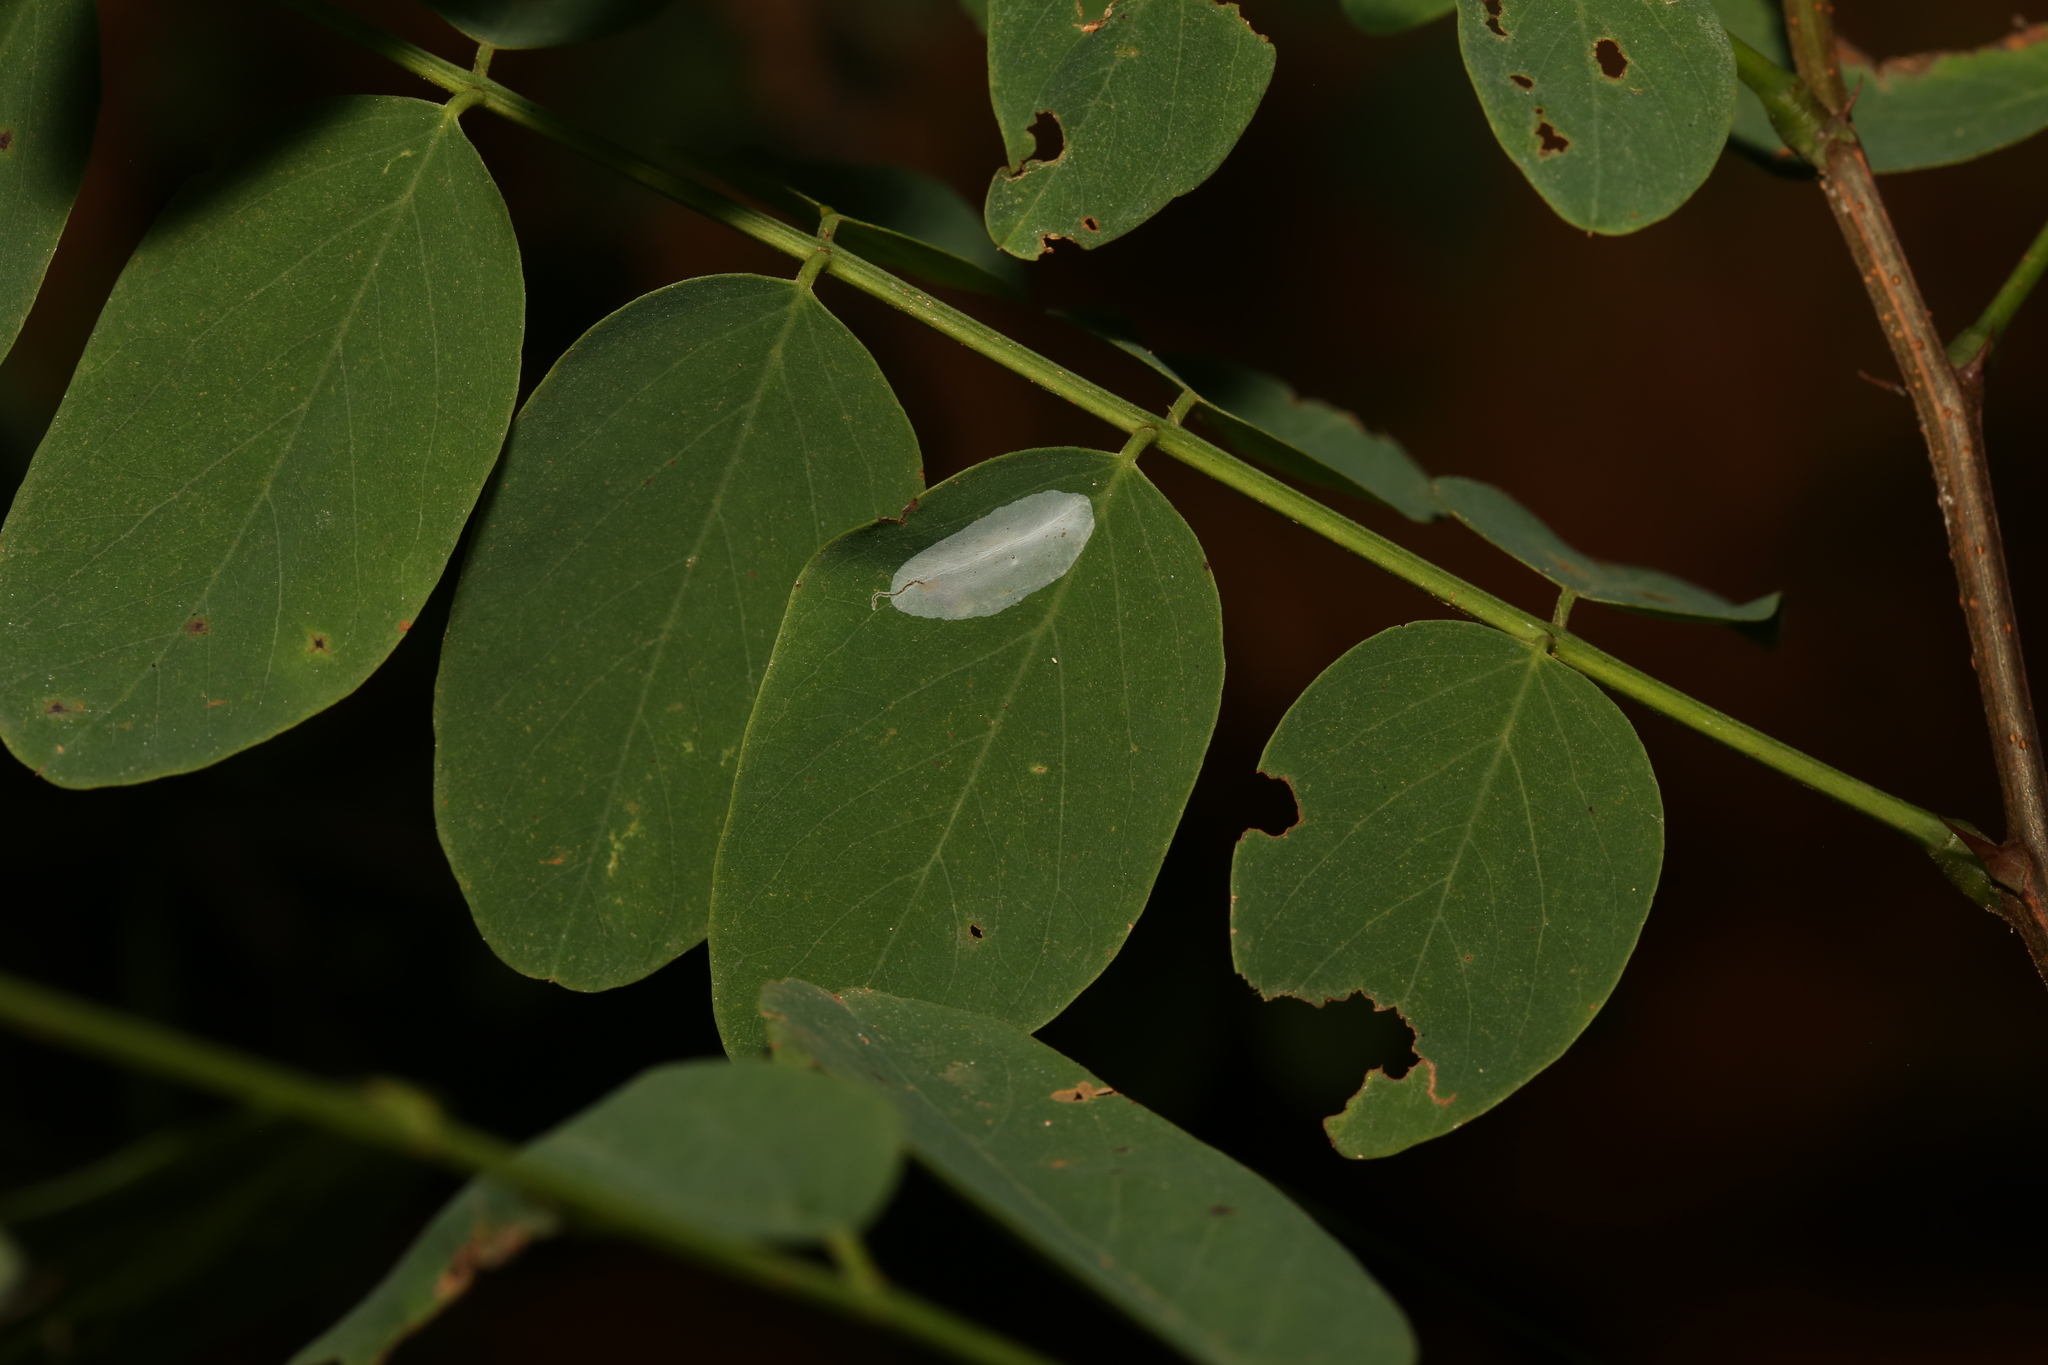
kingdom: Animalia
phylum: Arthropoda
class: Insecta
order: Lepidoptera
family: Gracillariidae
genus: Macrosaccus
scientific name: Macrosaccus robiniella
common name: Leaf blotch miner moth
